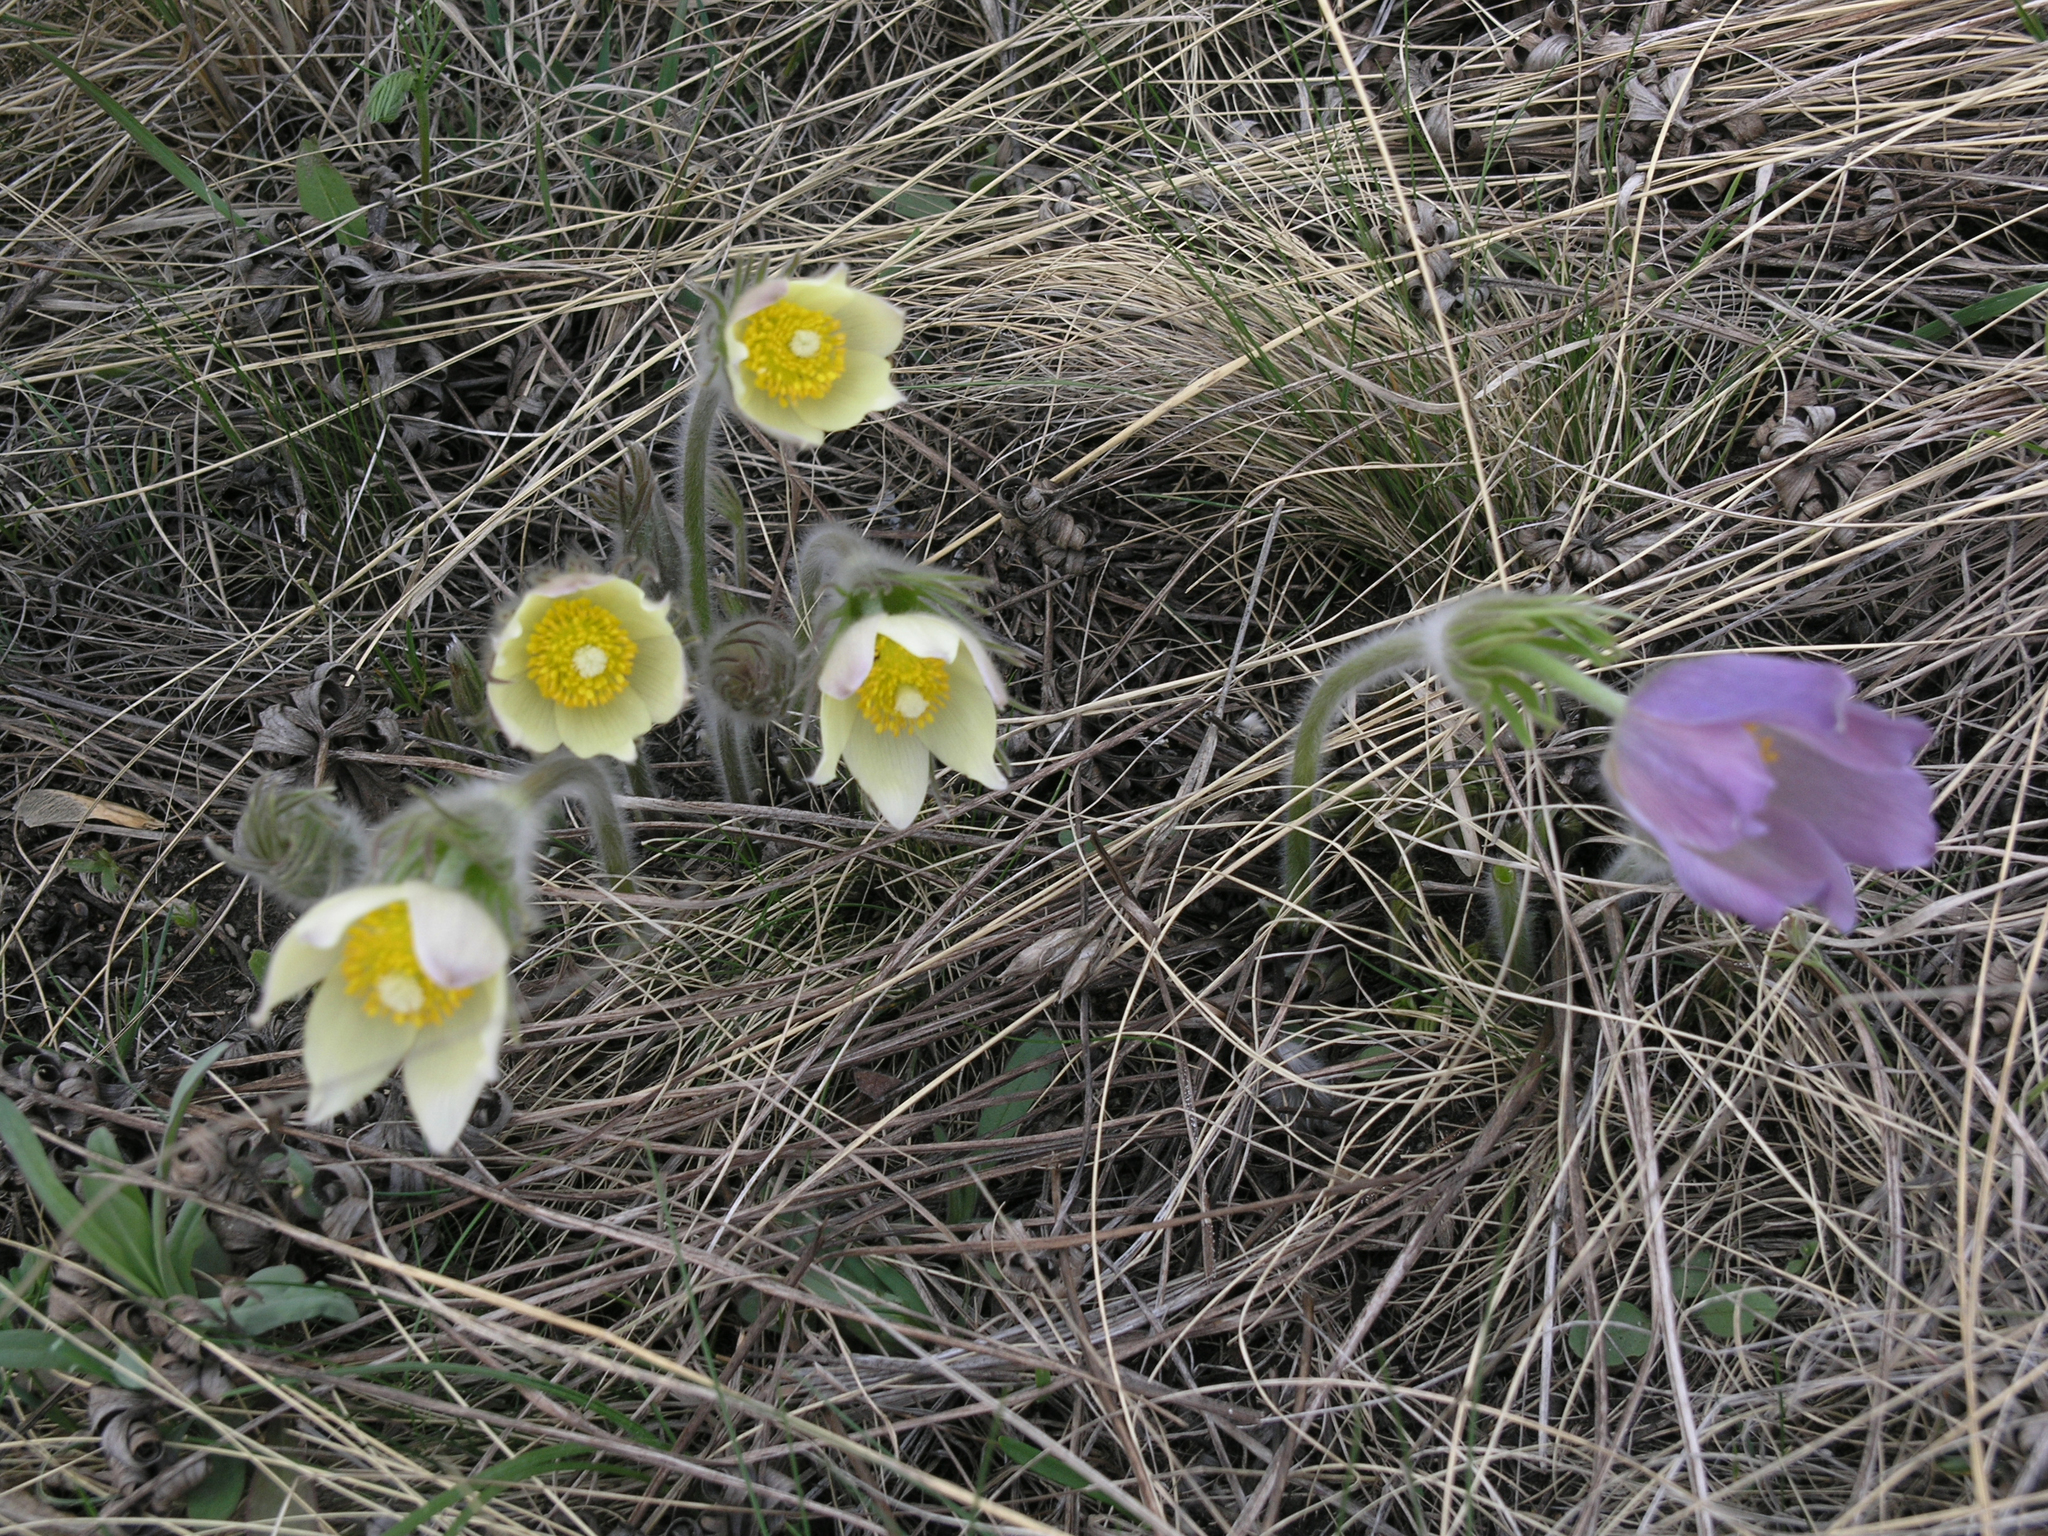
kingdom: Plantae
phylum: Tracheophyta
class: Magnoliopsida
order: Ranunculales
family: Ranunculaceae
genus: Pulsatilla
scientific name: Pulsatilla patens
